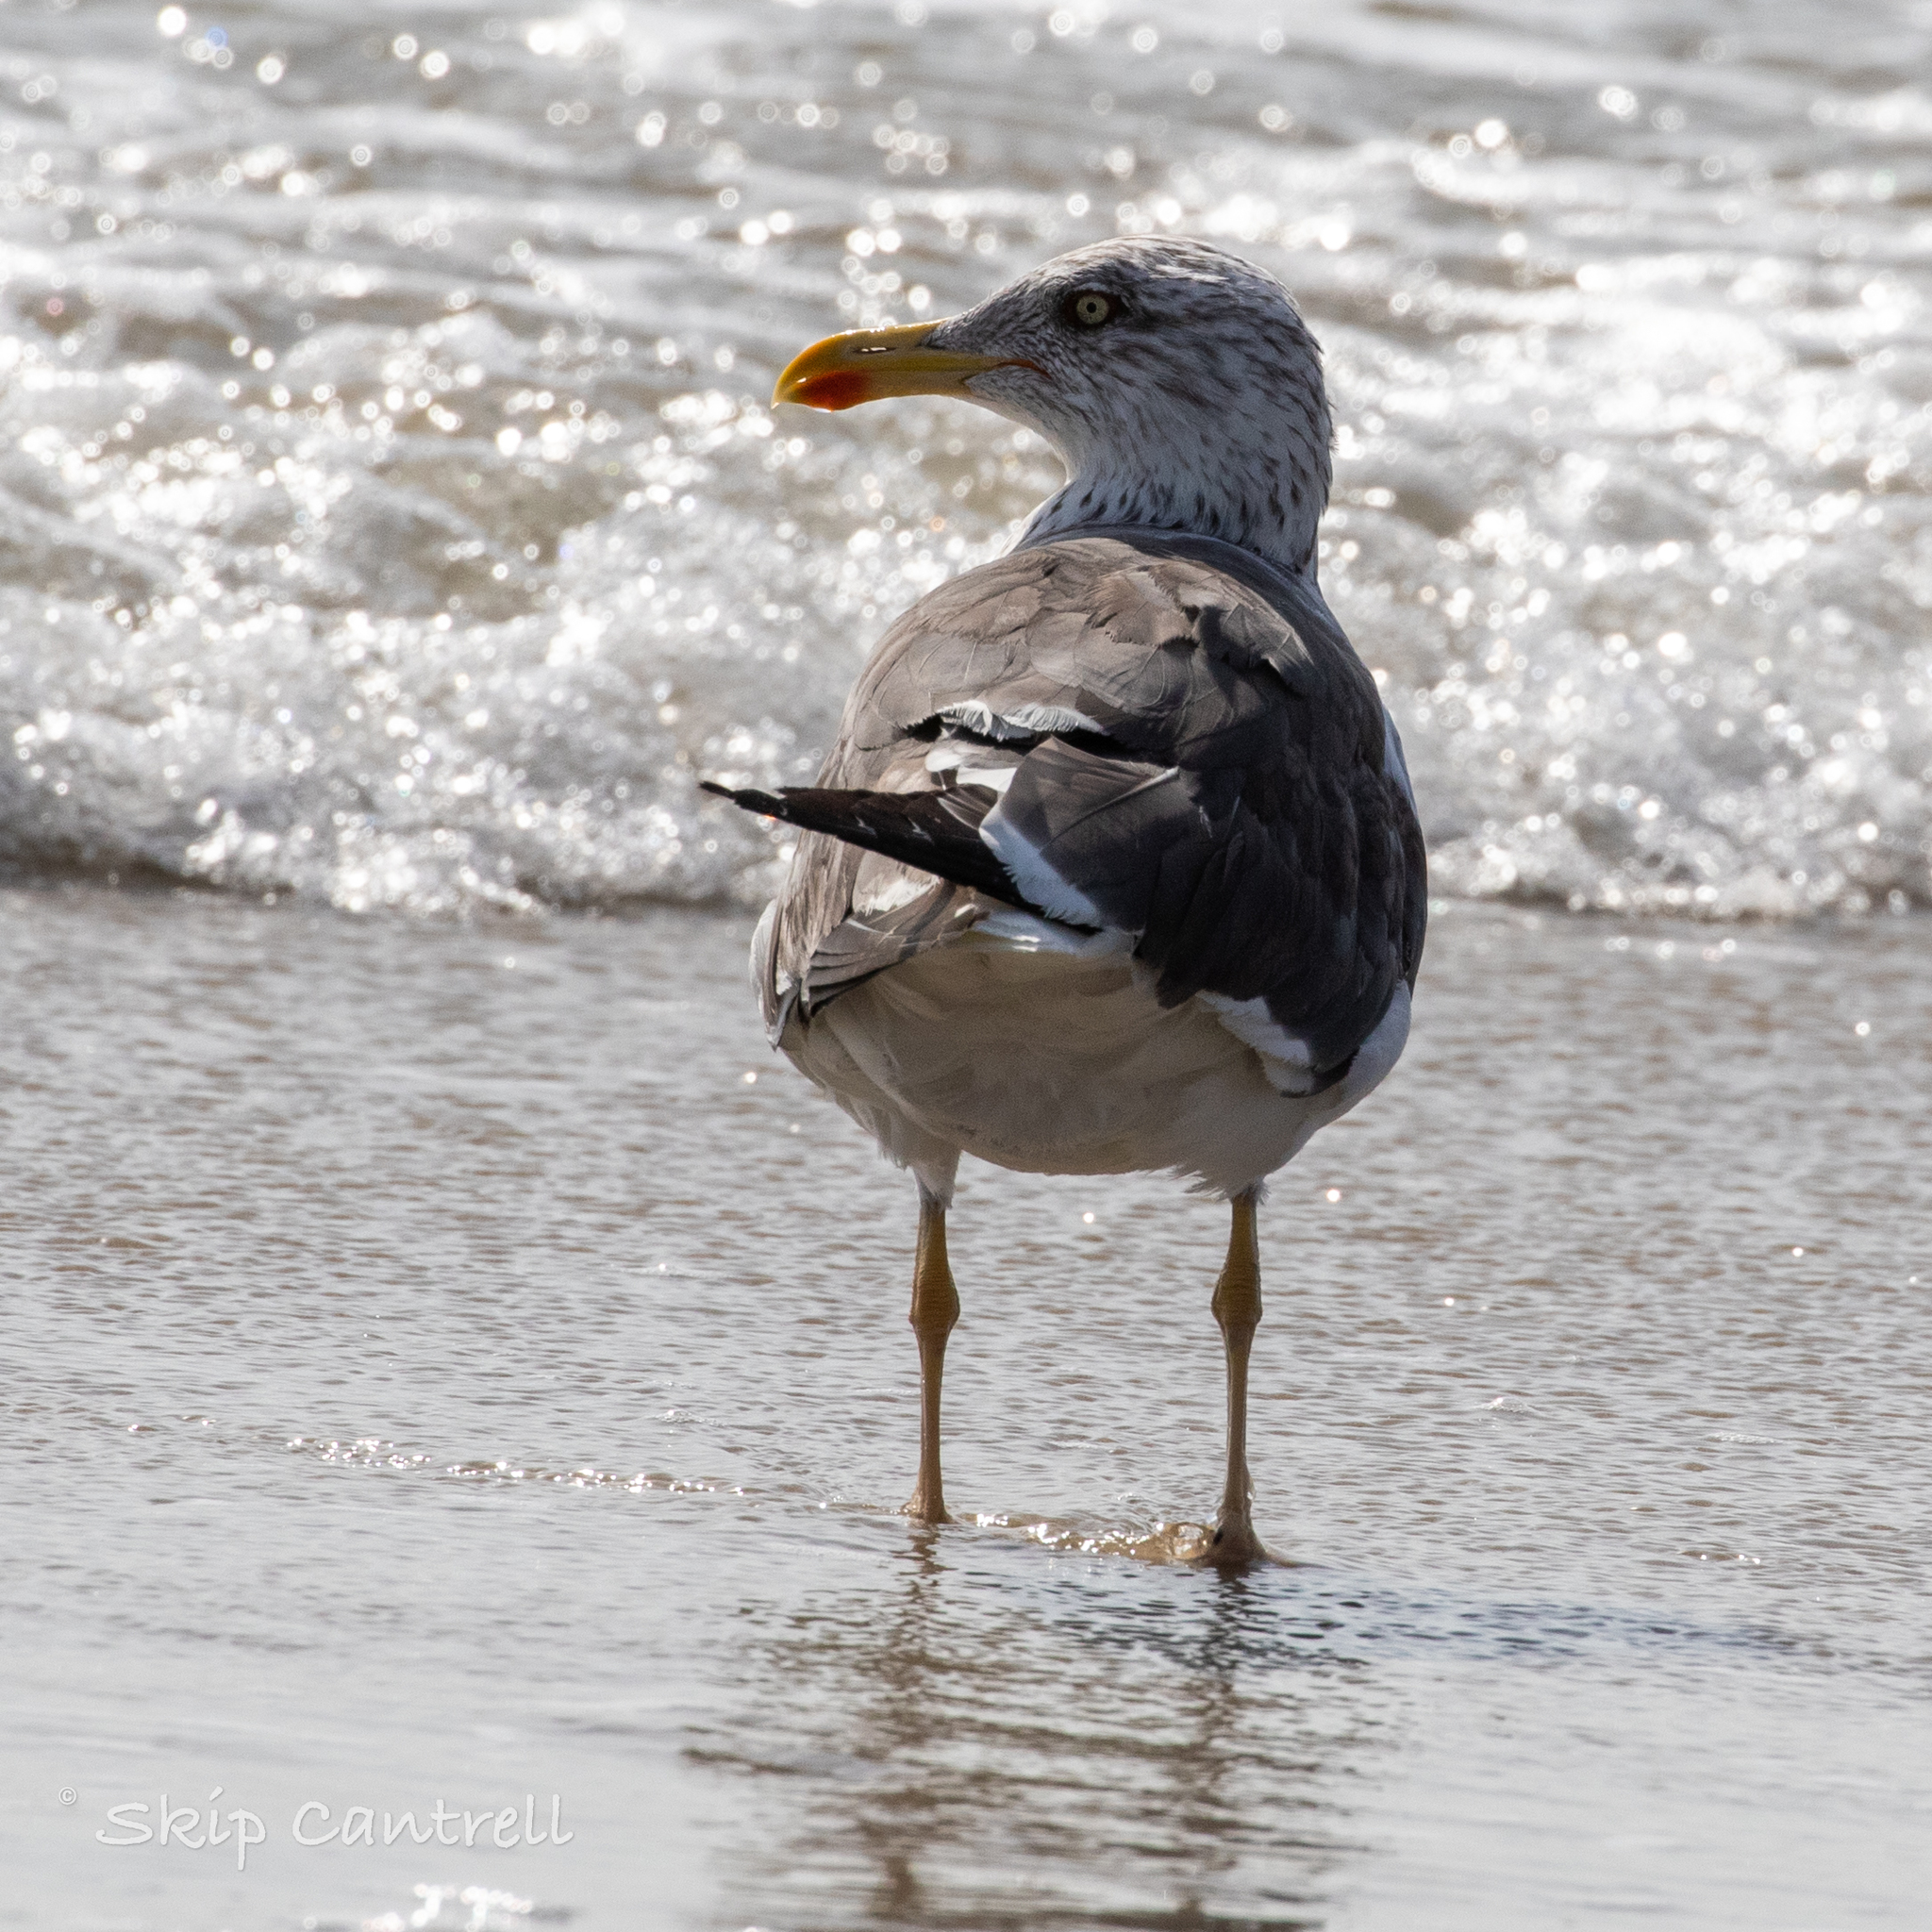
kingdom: Animalia
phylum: Chordata
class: Aves
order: Charadriiformes
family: Laridae
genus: Larus
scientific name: Larus fuscus
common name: Lesser black-backed gull
